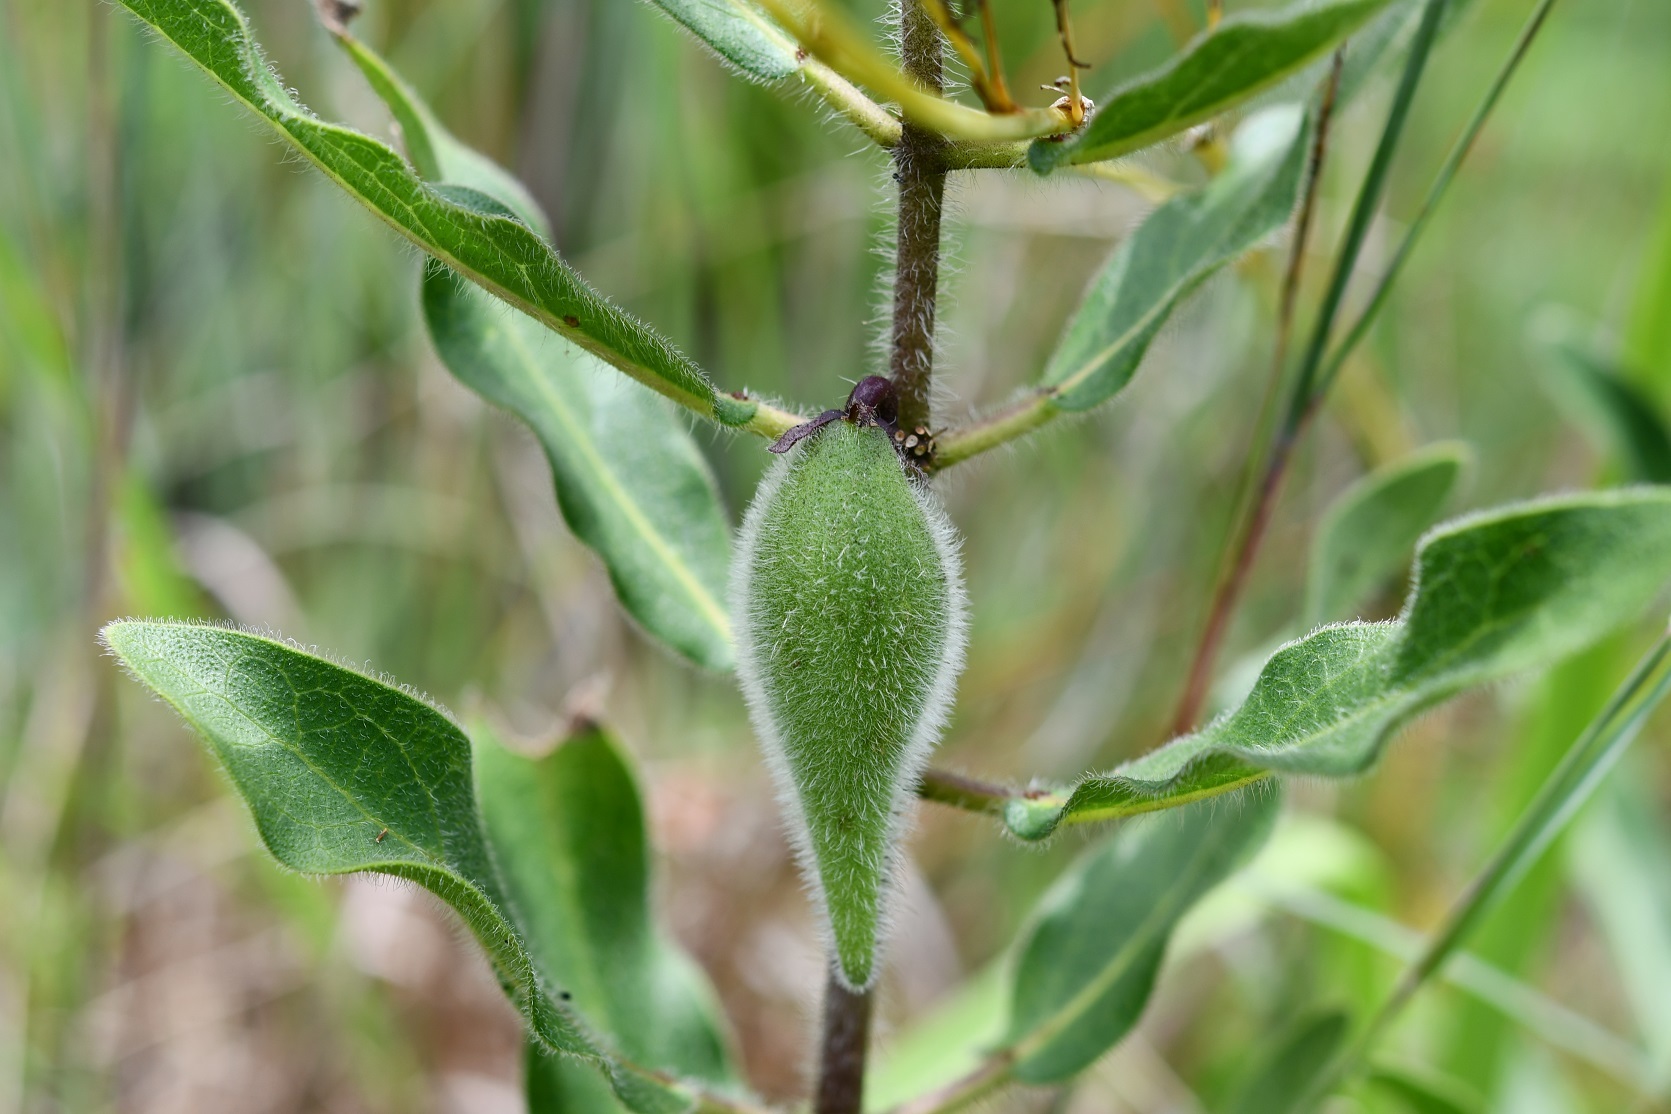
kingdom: Plantae
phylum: Tracheophyta
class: Magnoliopsida
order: Gentianales
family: Apocynaceae
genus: Pherotrichis
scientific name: Pherotrichis villosa
